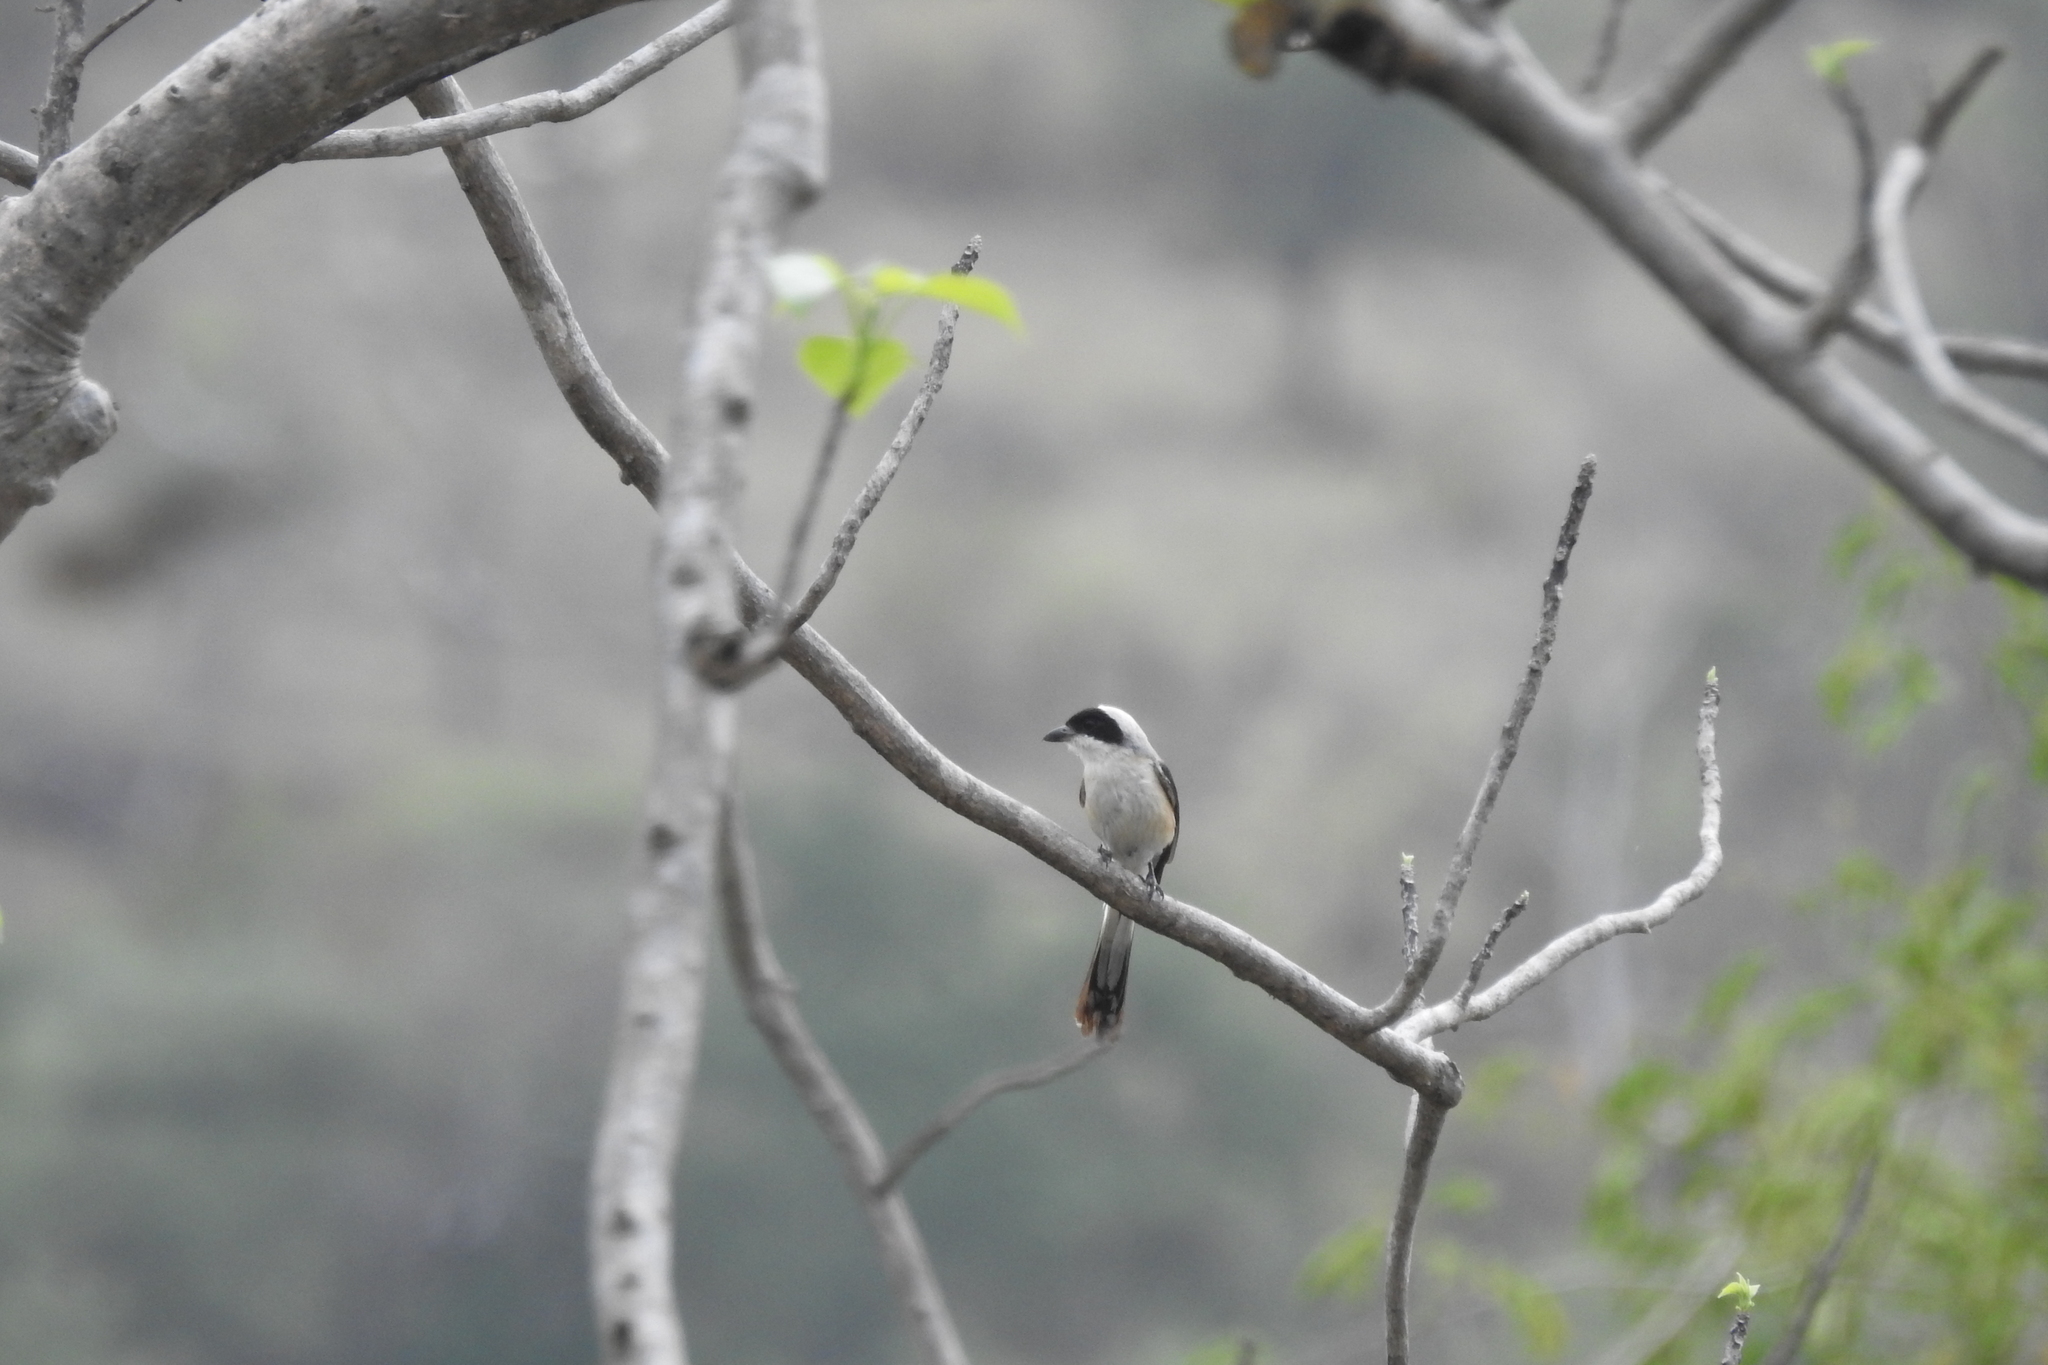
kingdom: Animalia
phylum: Chordata
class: Aves
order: Passeriformes
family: Laniidae
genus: Lanius
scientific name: Lanius vittatus
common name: Bay-backed shrike
